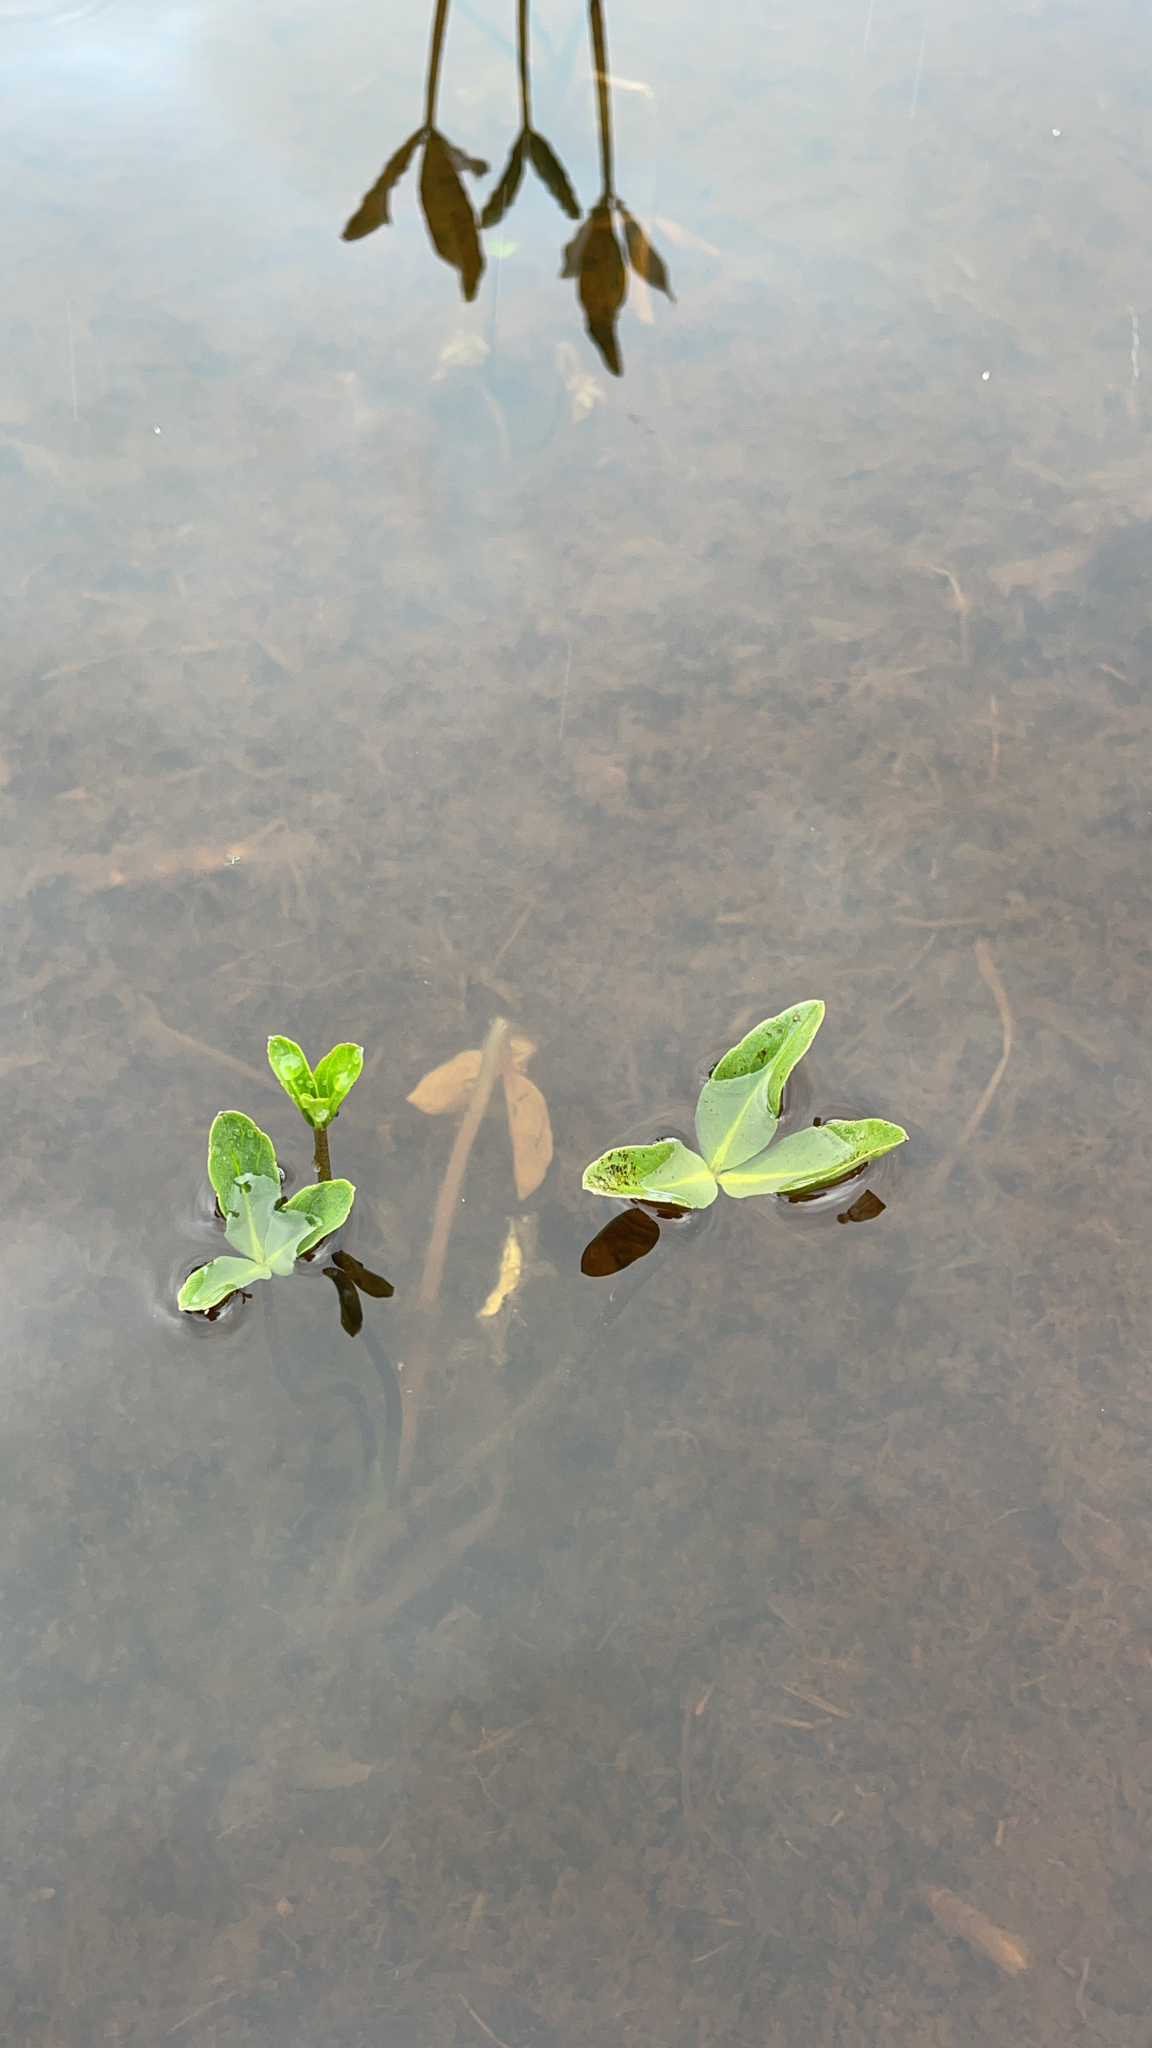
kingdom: Plantae
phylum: Tracheophyta
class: Magnoliopsida
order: Asterales
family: Menyanthaceae
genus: Menyanthes
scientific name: Menyanthes trifoliata
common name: Bogbean
